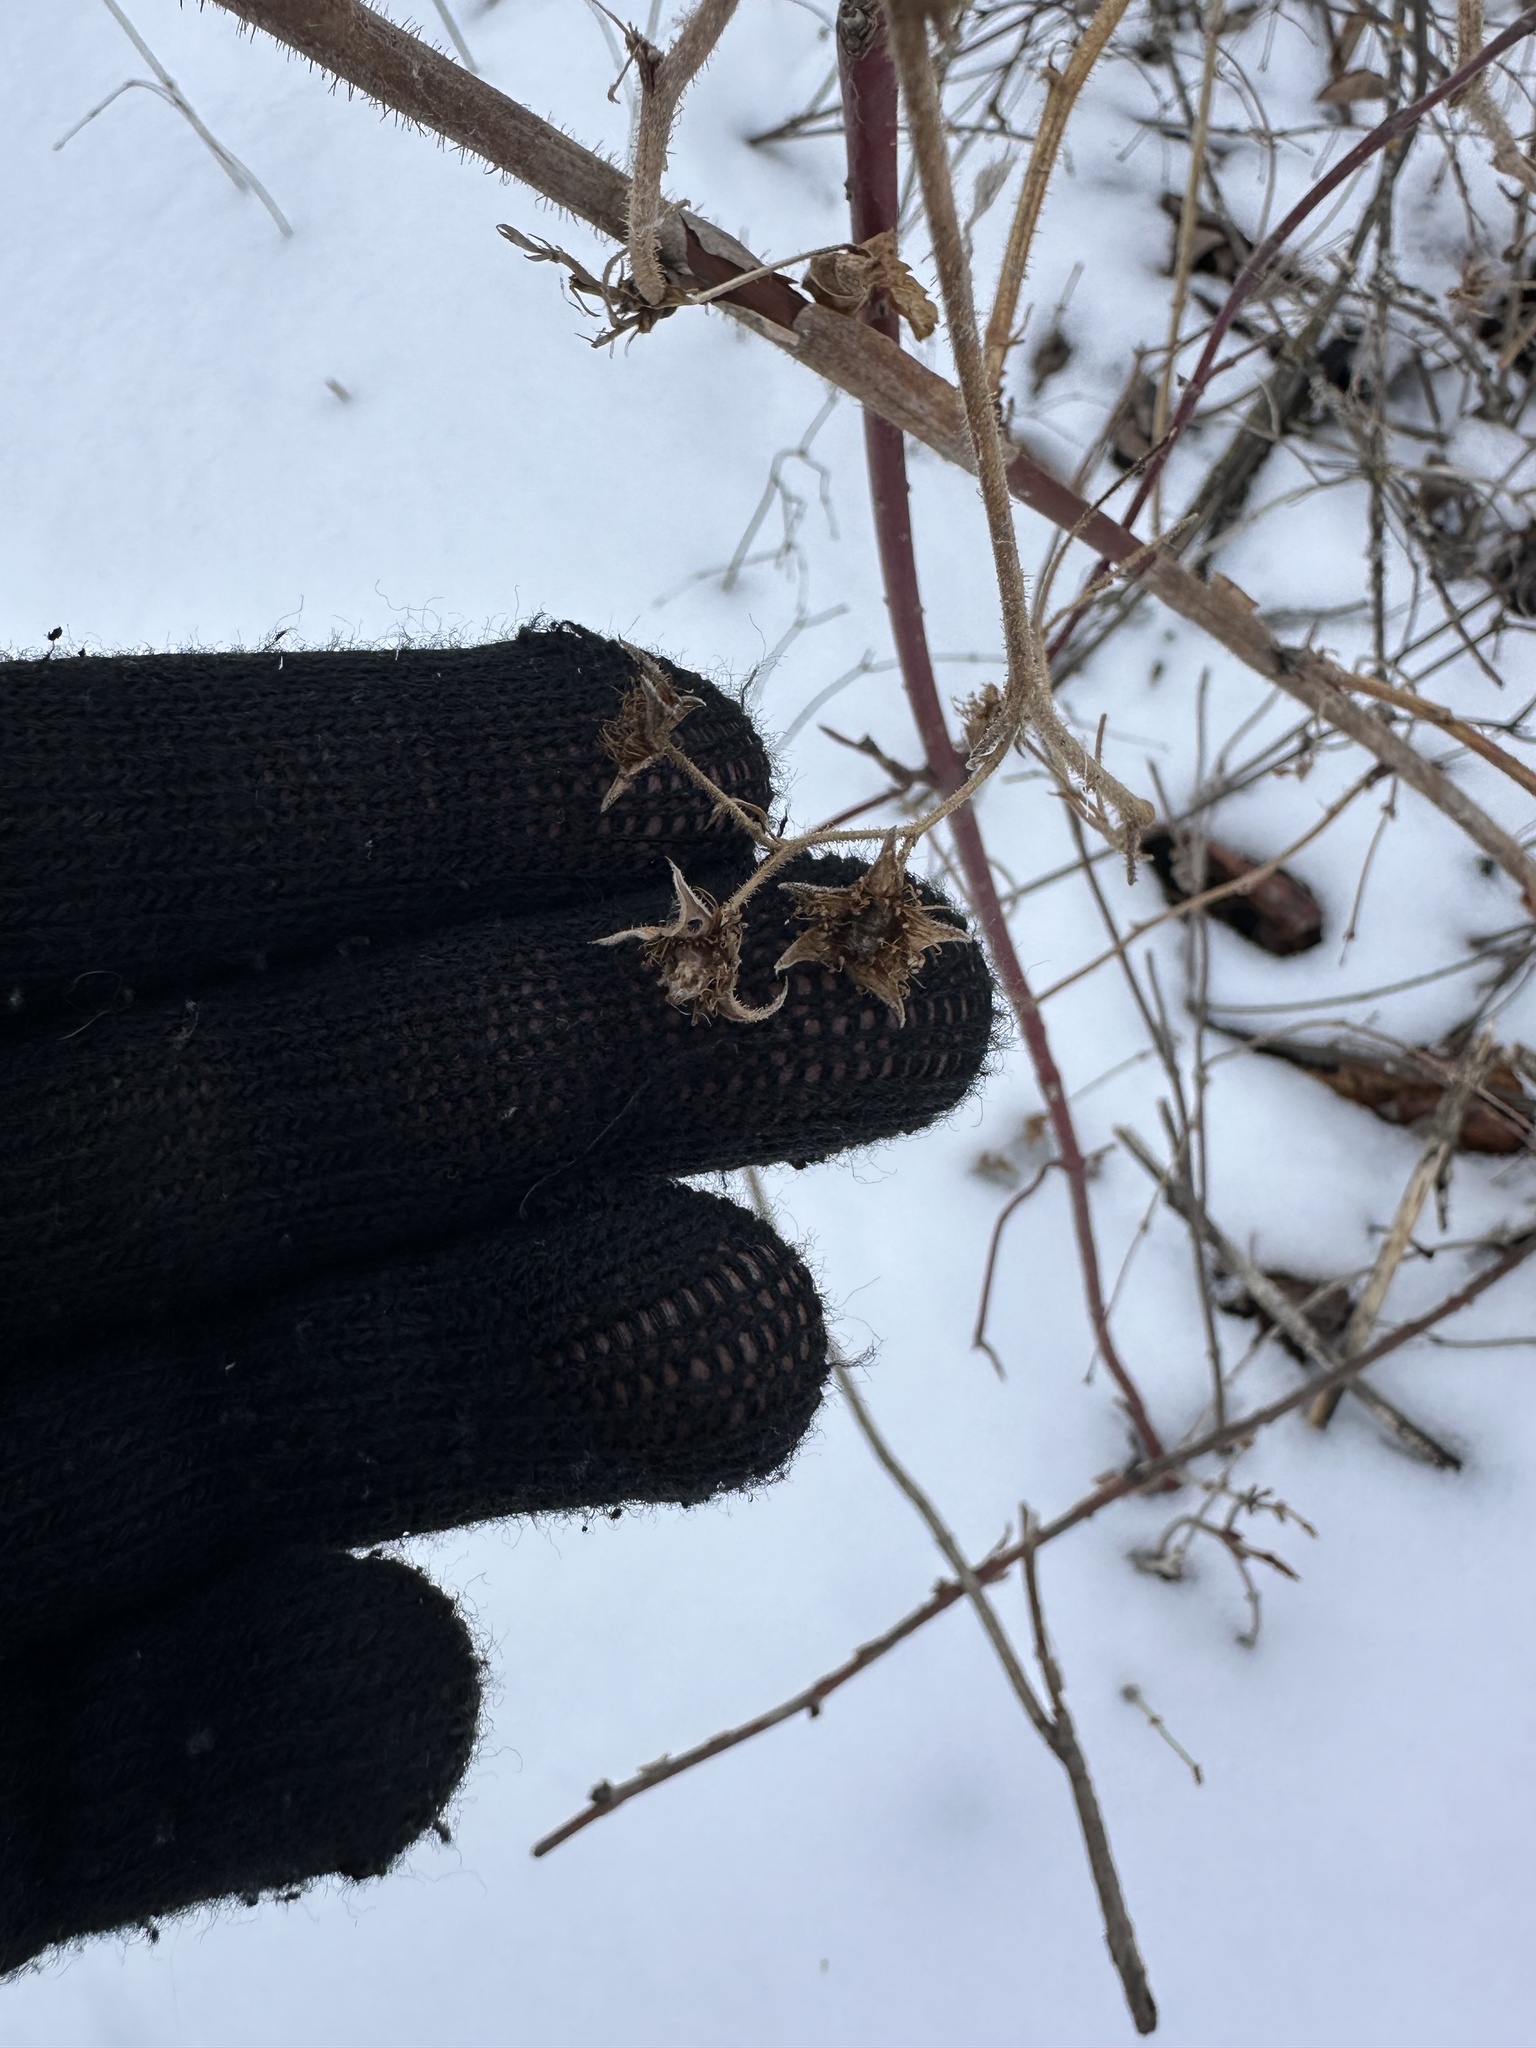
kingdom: Plantae
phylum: Tracheophyta
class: Magnoliopsida
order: Rosales
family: Rosaceae
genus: Rubus
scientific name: Rubus idaeus
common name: Raspberry
